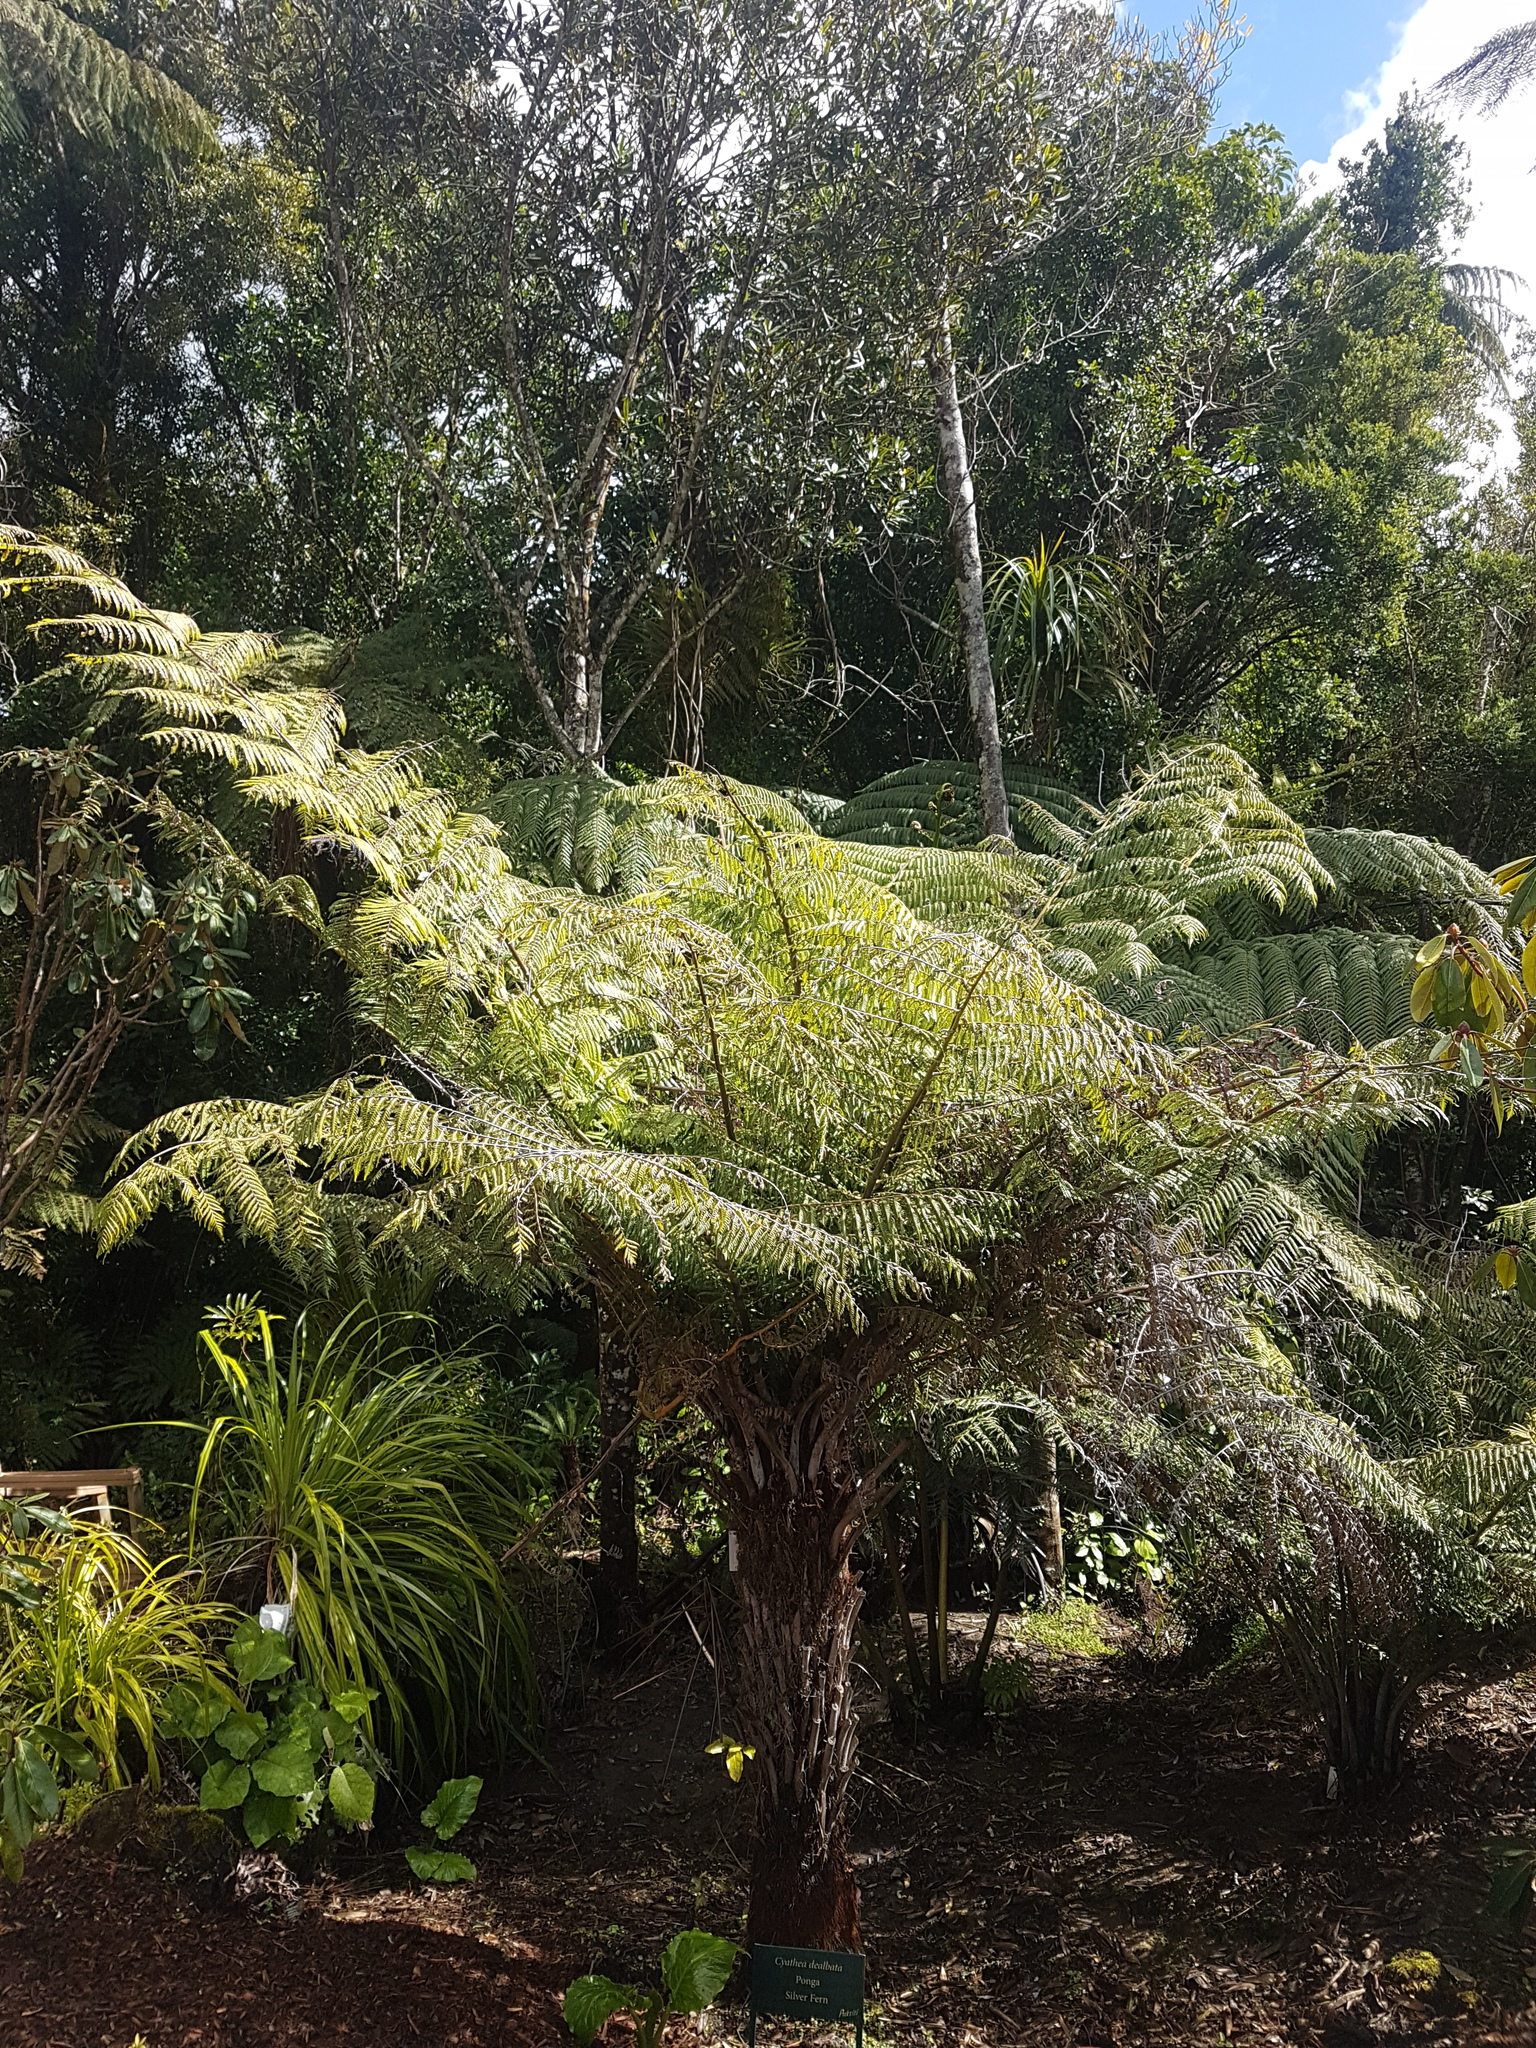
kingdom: Plantae
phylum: Tracheophyta
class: Polypodiopsida
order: Cyatheales
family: Cyatheaceae
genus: Alsophila
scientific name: Alsophila dealbata
